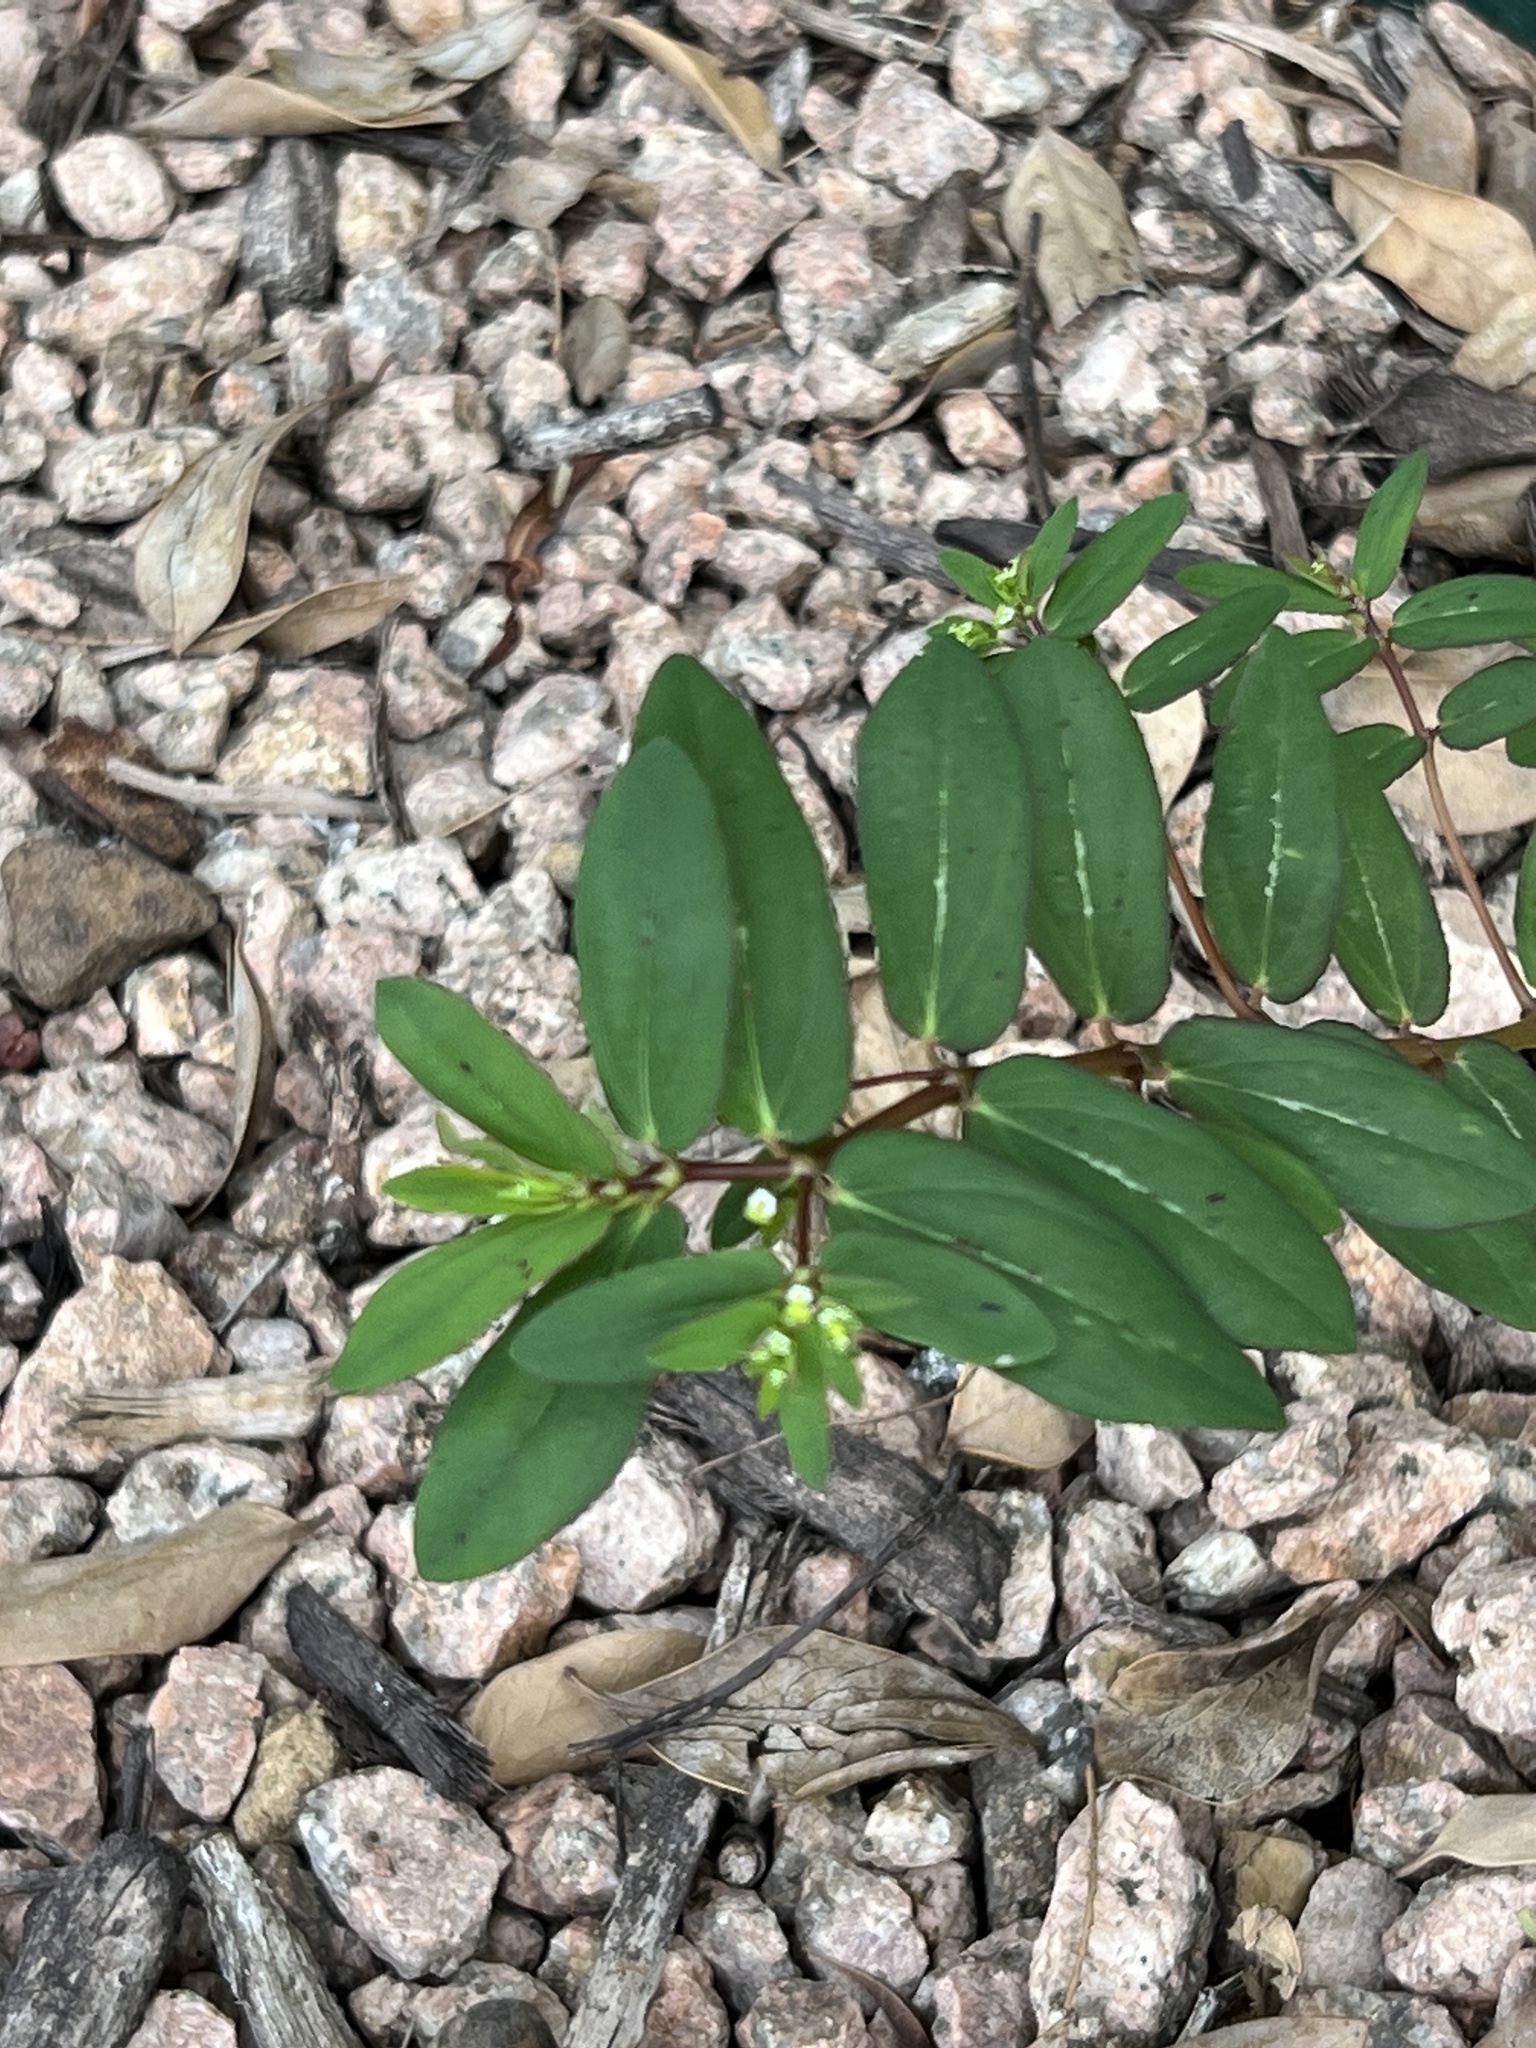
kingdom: Plantae
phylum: Tracheophyta
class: Magnoliopsida
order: Malpighiales
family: Euphorbiaceae
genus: Euphorbia
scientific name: Euphorbia hyssopifolia
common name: Hyssopleaf sandmat
